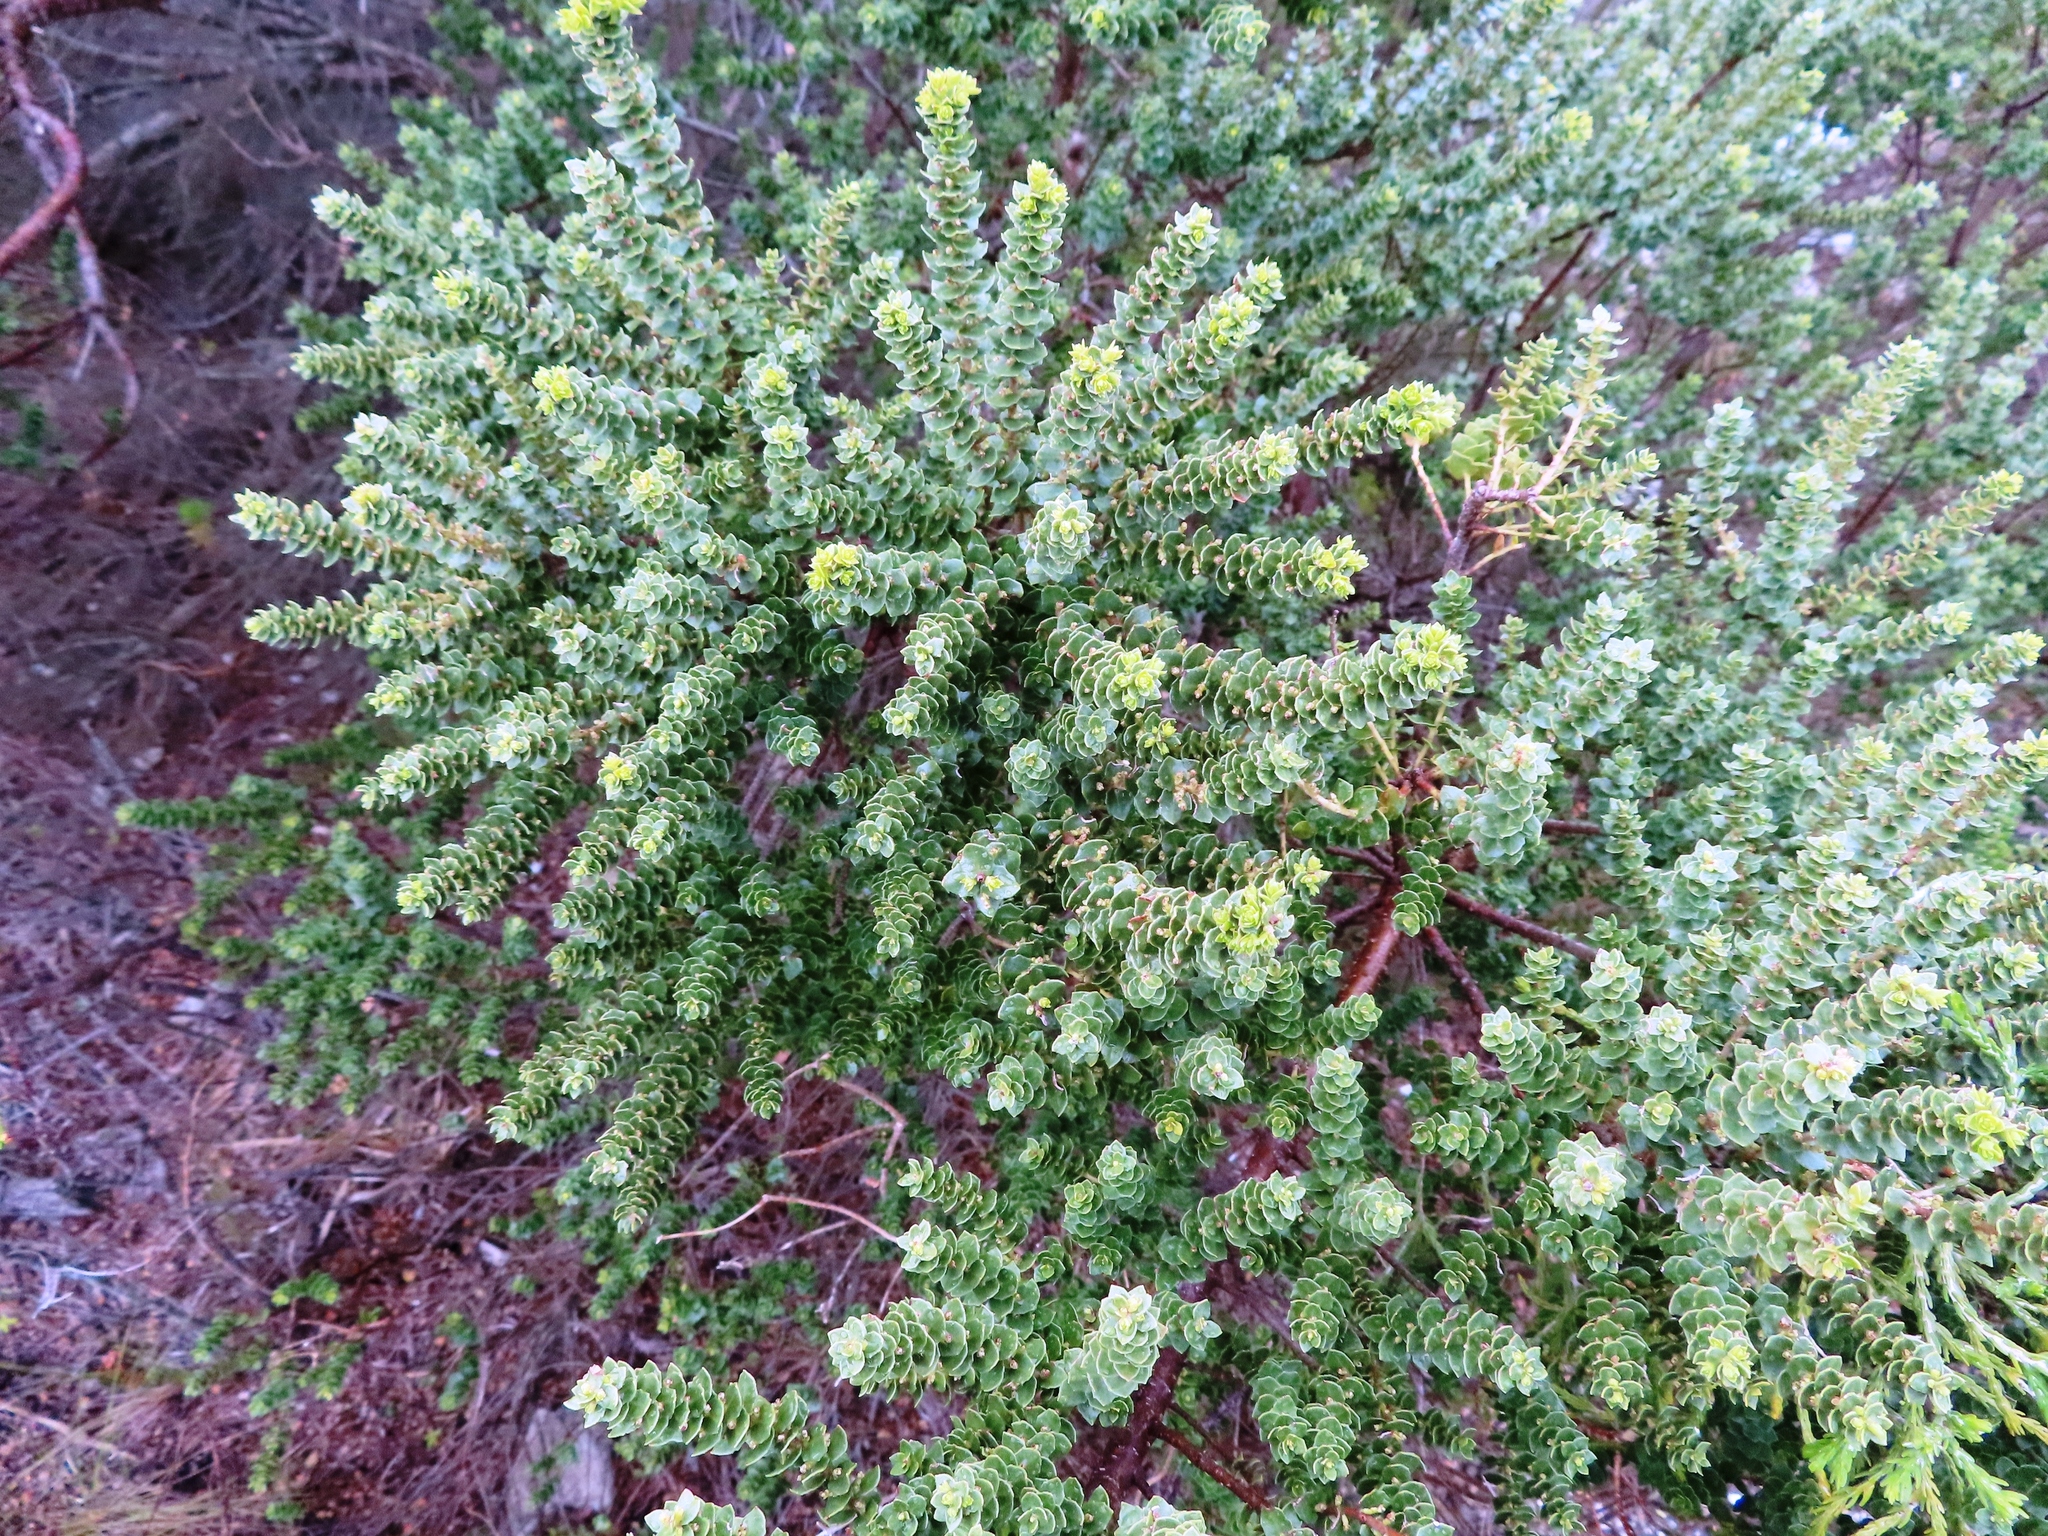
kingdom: Plantae
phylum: Tracheophyta
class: Magnoliopsida
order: Fagales
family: Myricaceae
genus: Morella
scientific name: Morella cordifolia
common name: Waxberry
